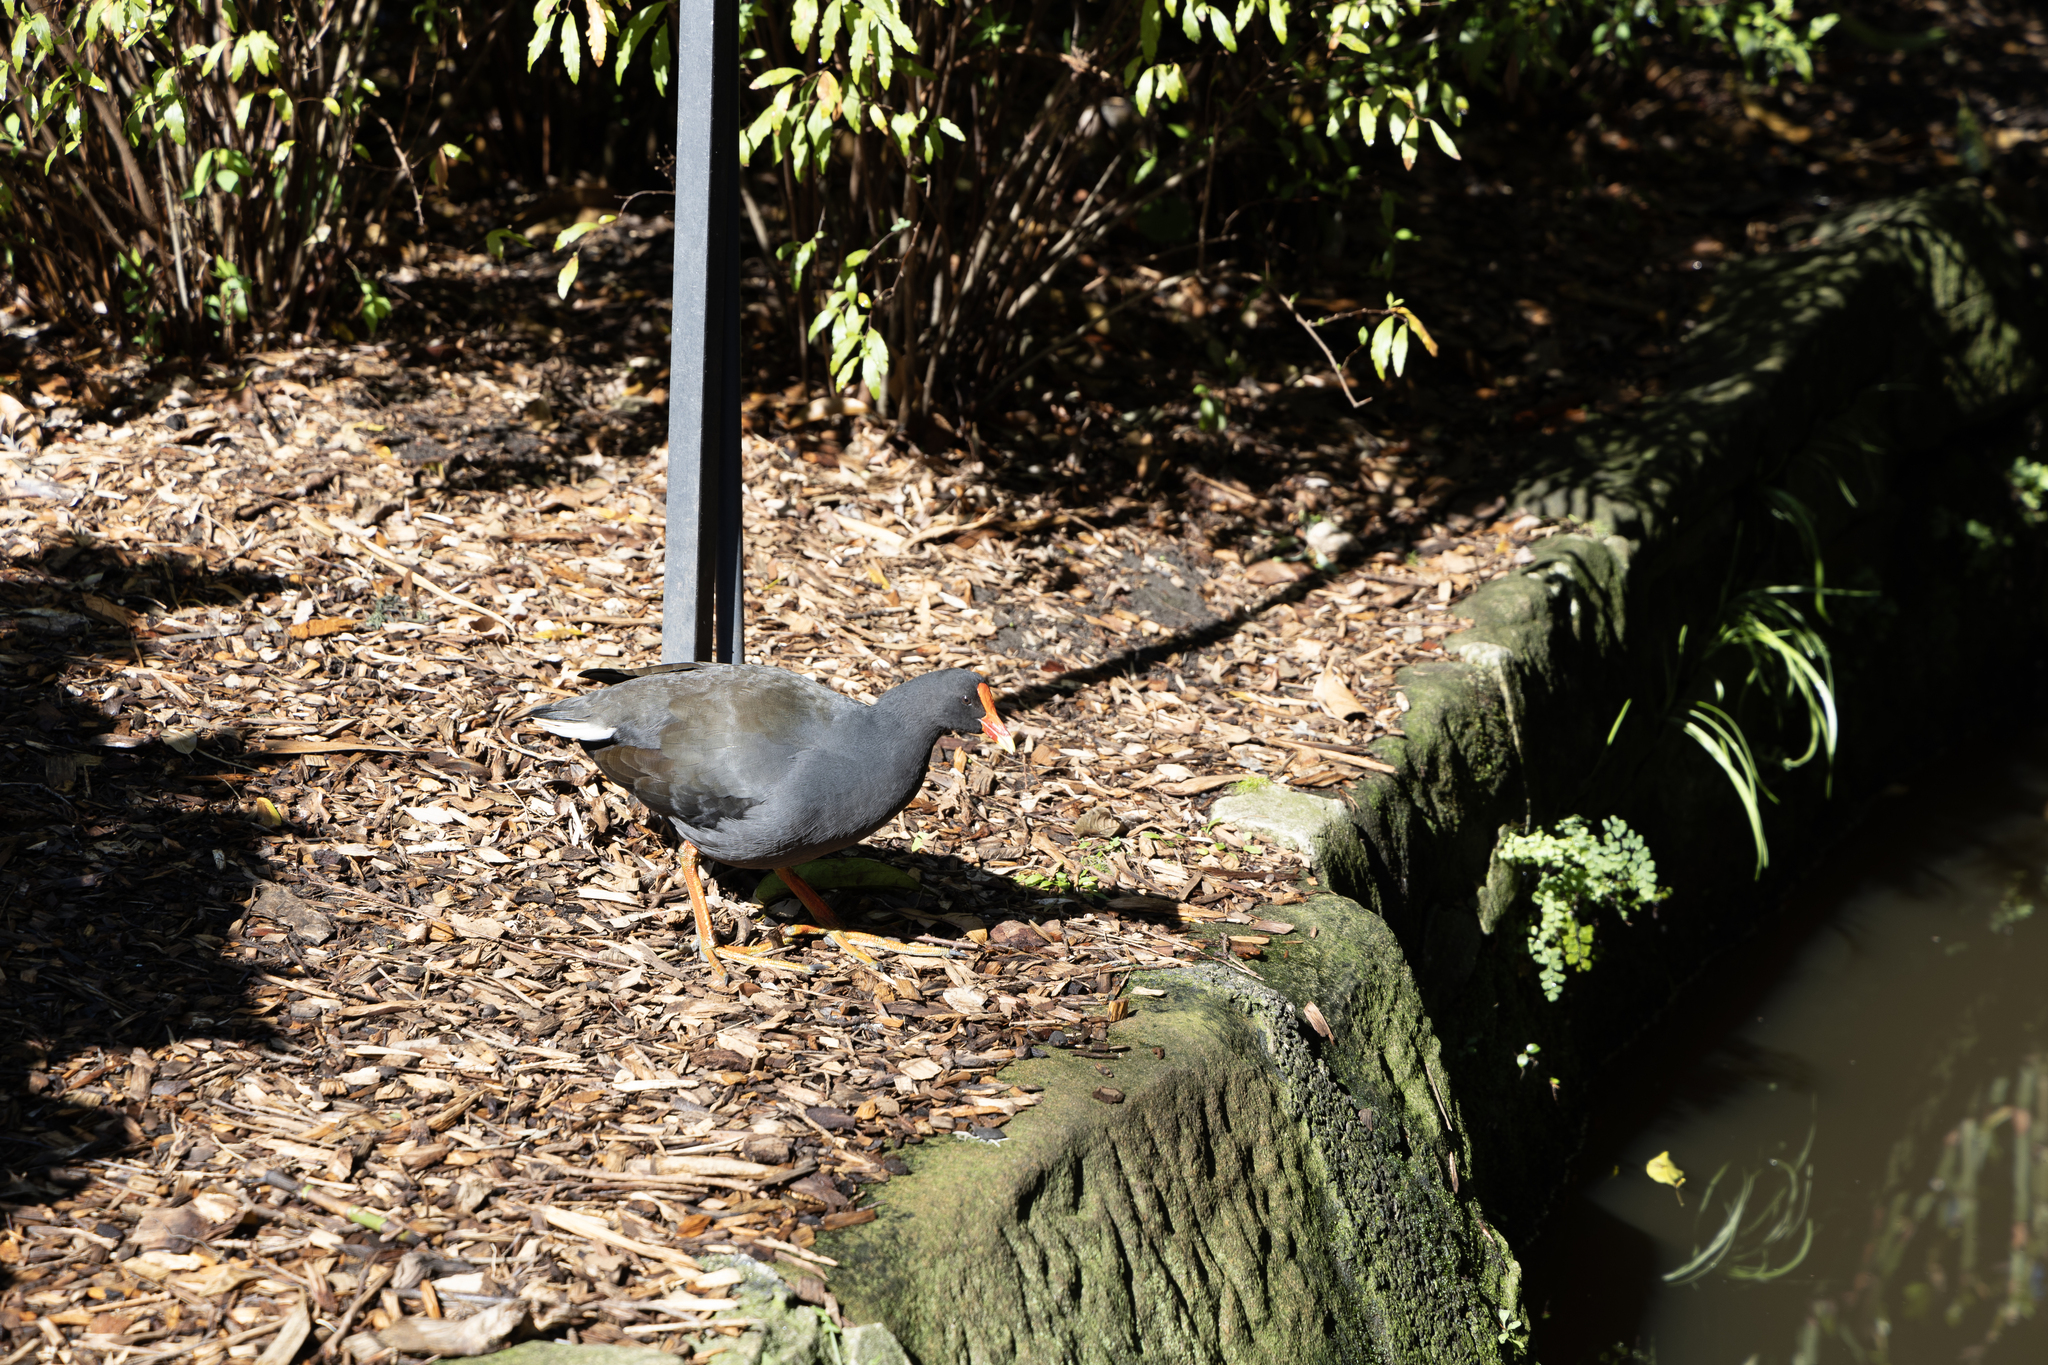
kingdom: Animalia
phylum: Chordata
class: Aves
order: Gruiformes
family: Rallidae
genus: Gallinula
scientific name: Gallinula tenebrosa
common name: Dusky moorhen
